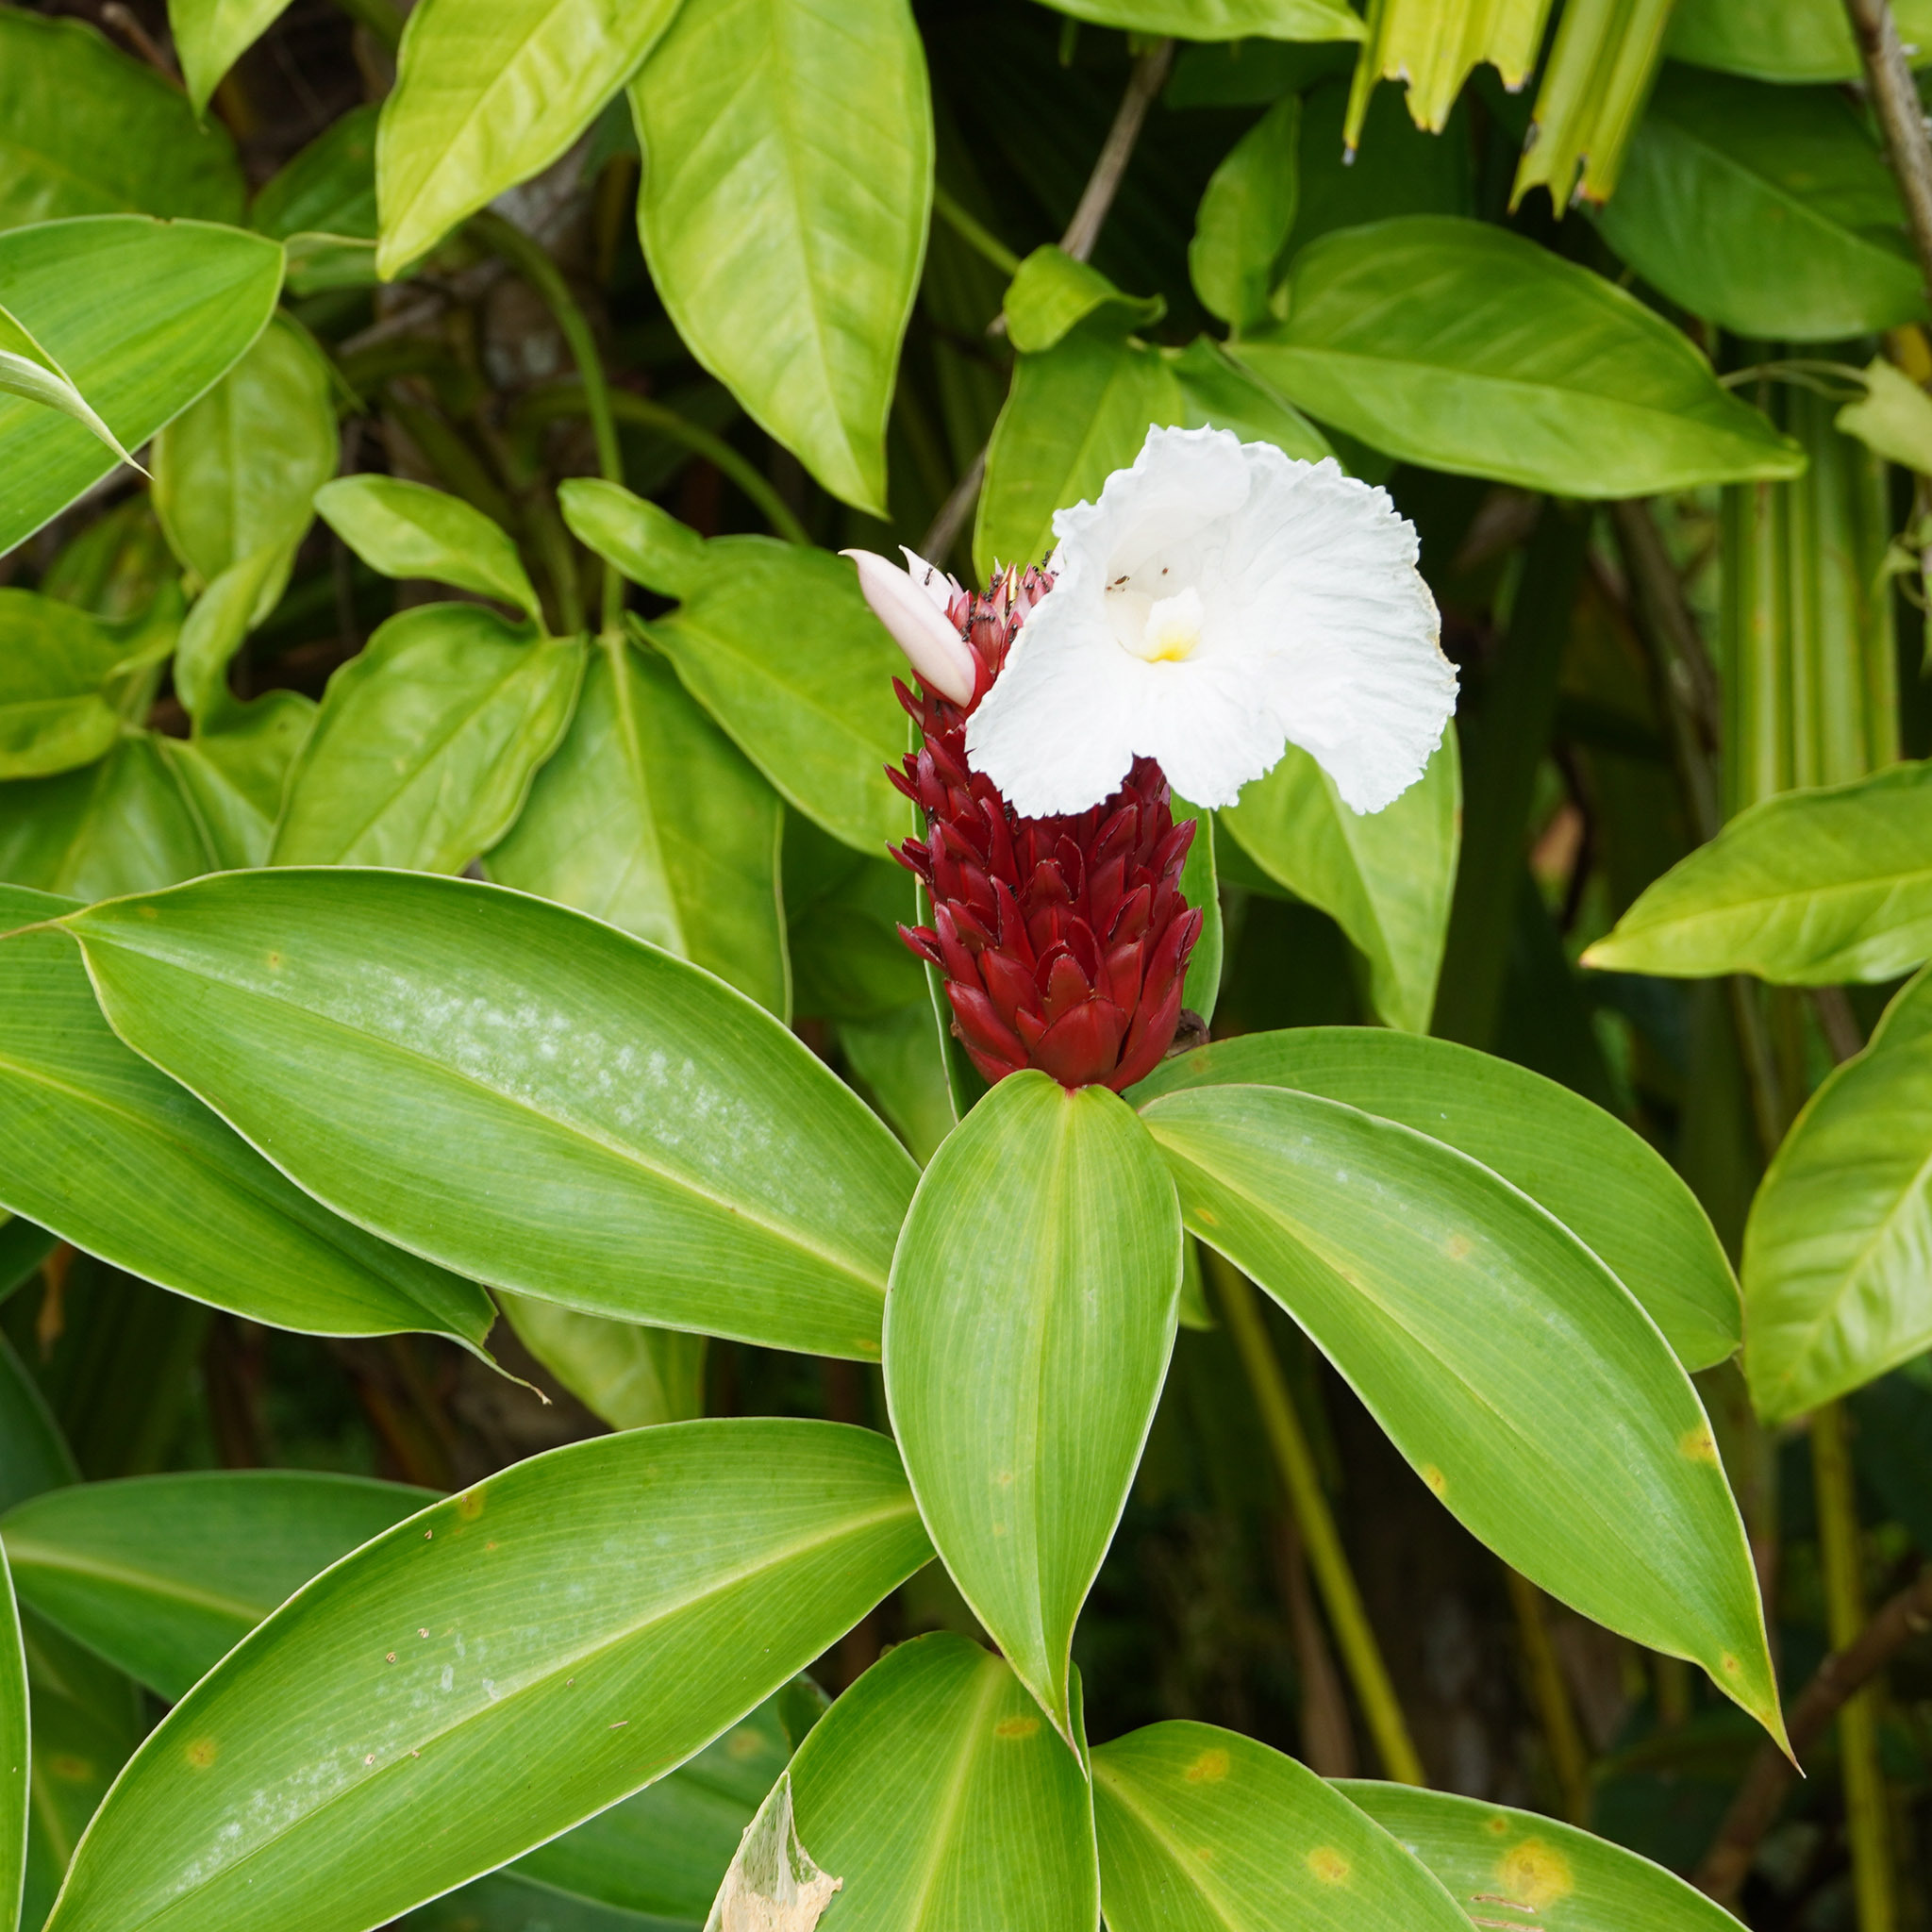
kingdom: Plantae
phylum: Tracheophyta
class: Liliopsida
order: Zingiberales
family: Costaceae
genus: Hellenia
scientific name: Hellenia speciosa
